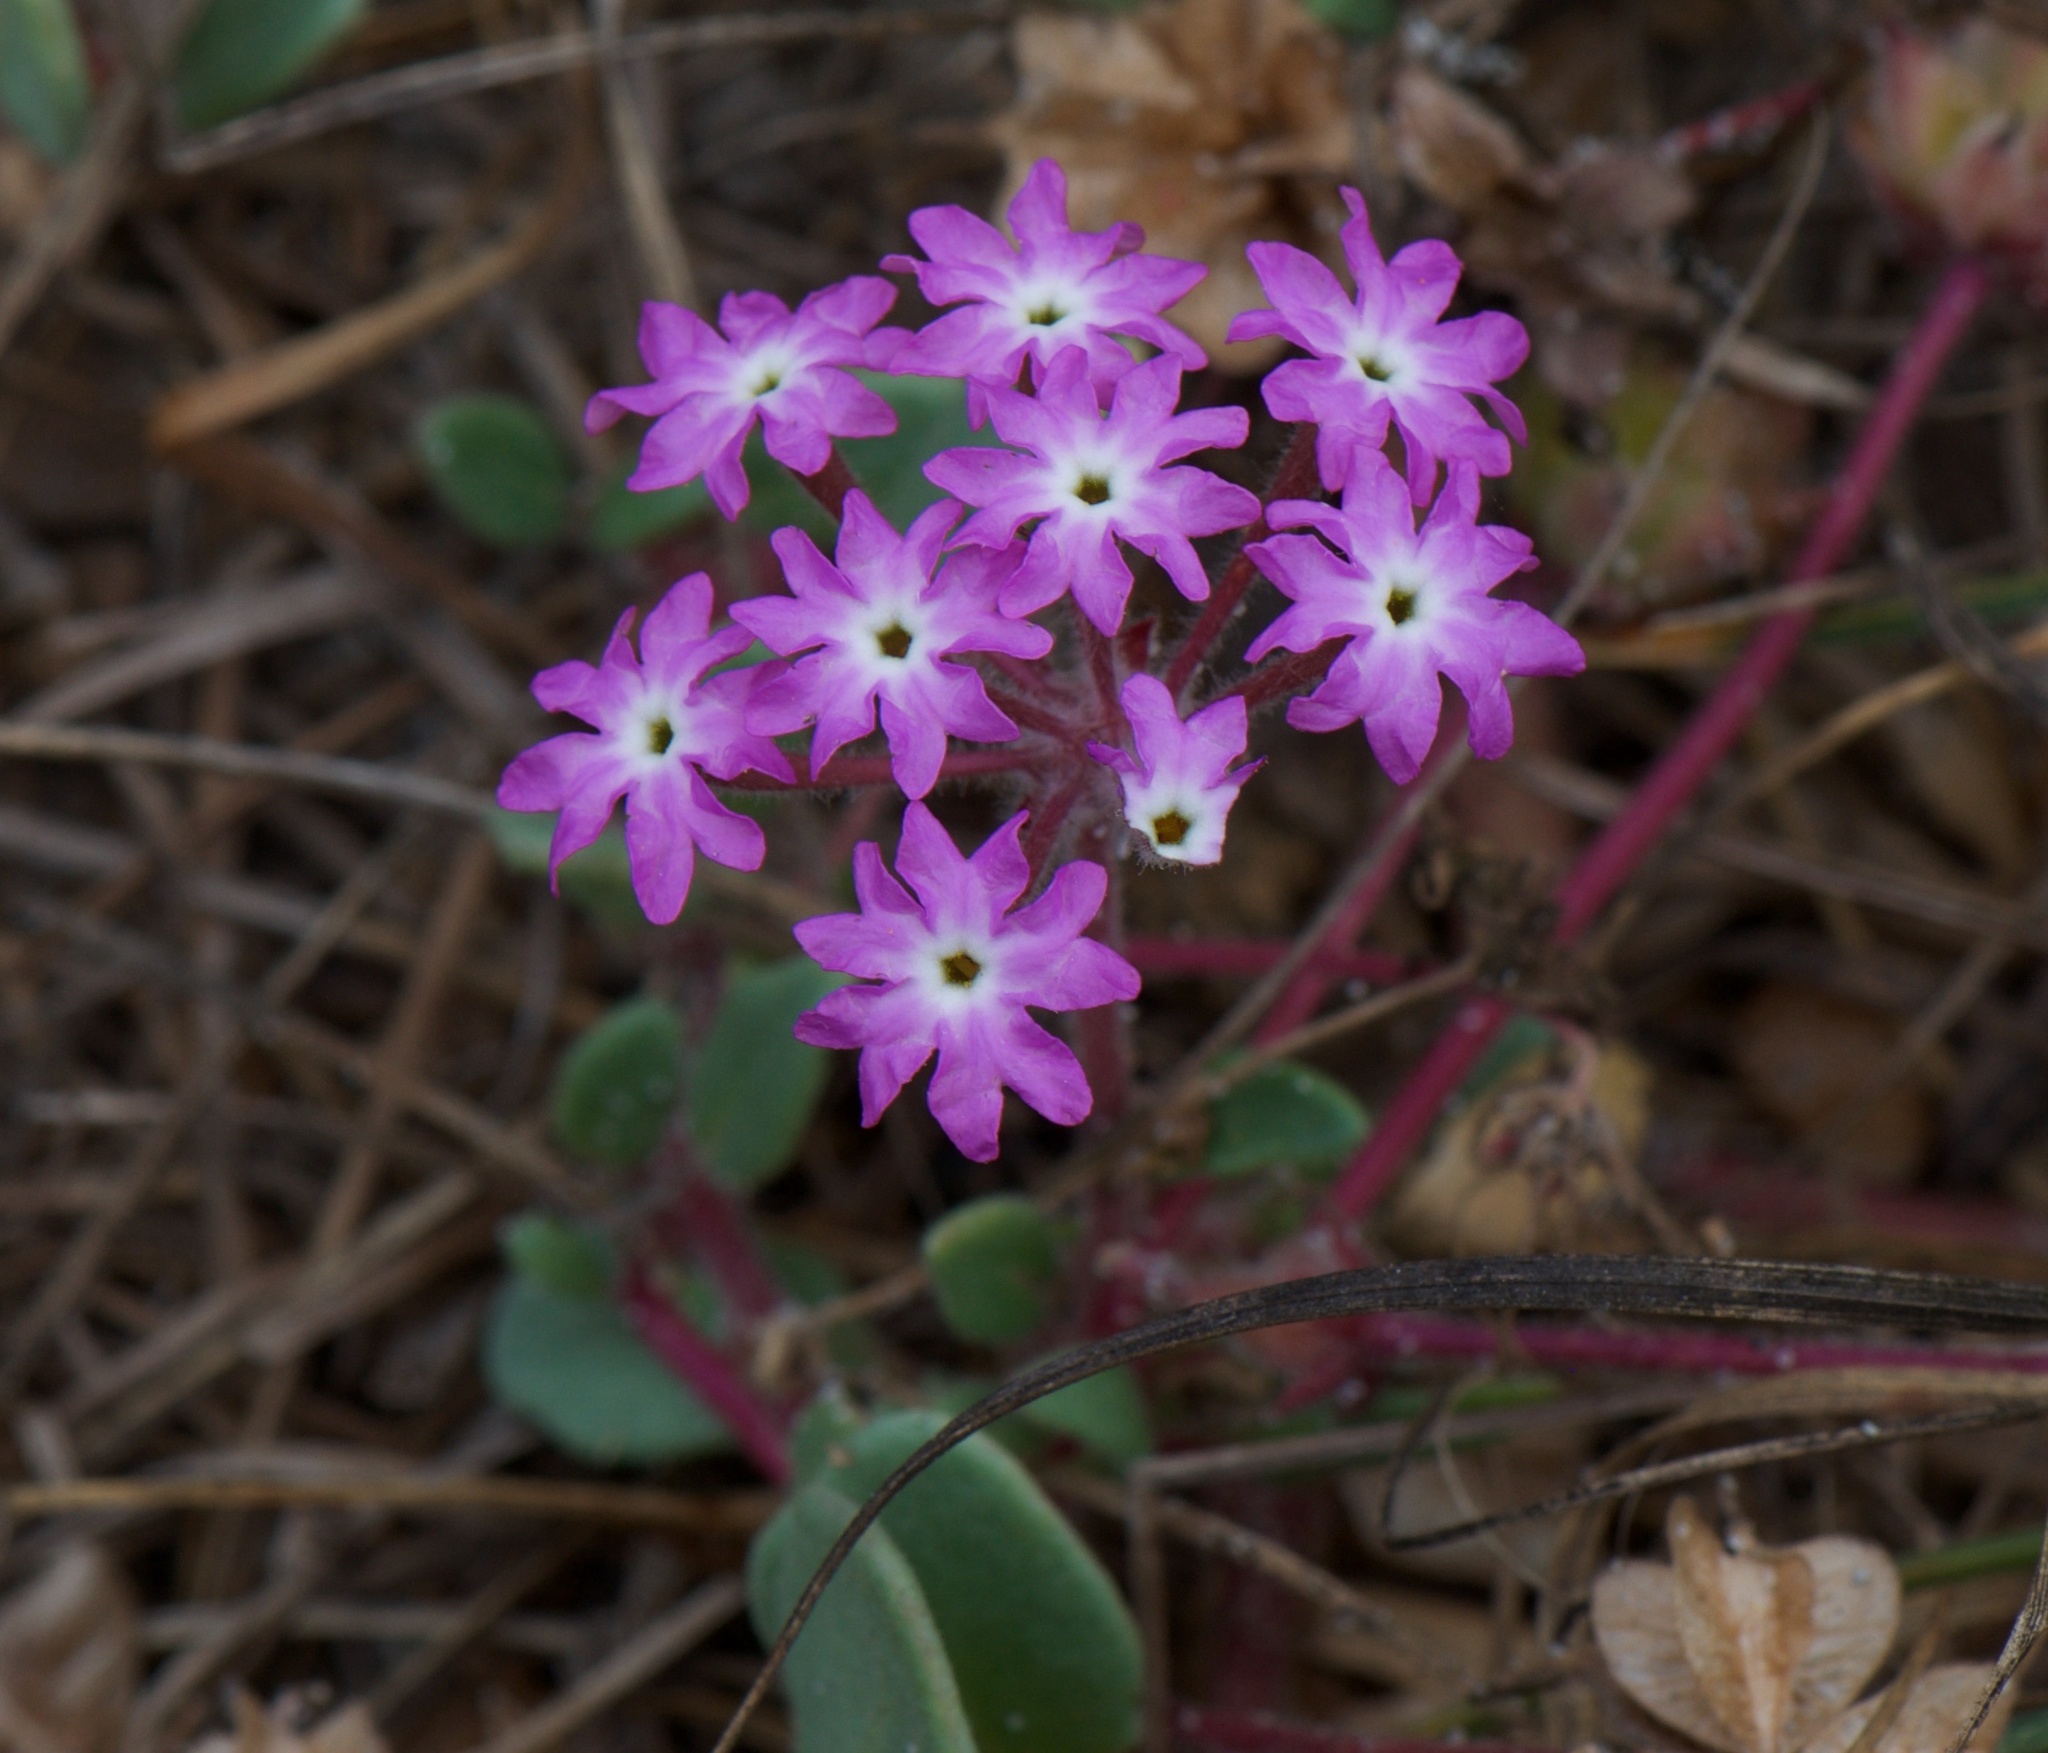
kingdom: Plantae
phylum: Tracheophyta
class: Magnoliopsida
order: Caryophyllales
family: Nyctaginaceae
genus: Abronia
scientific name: Abronia umbellata
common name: Sand-verbena
